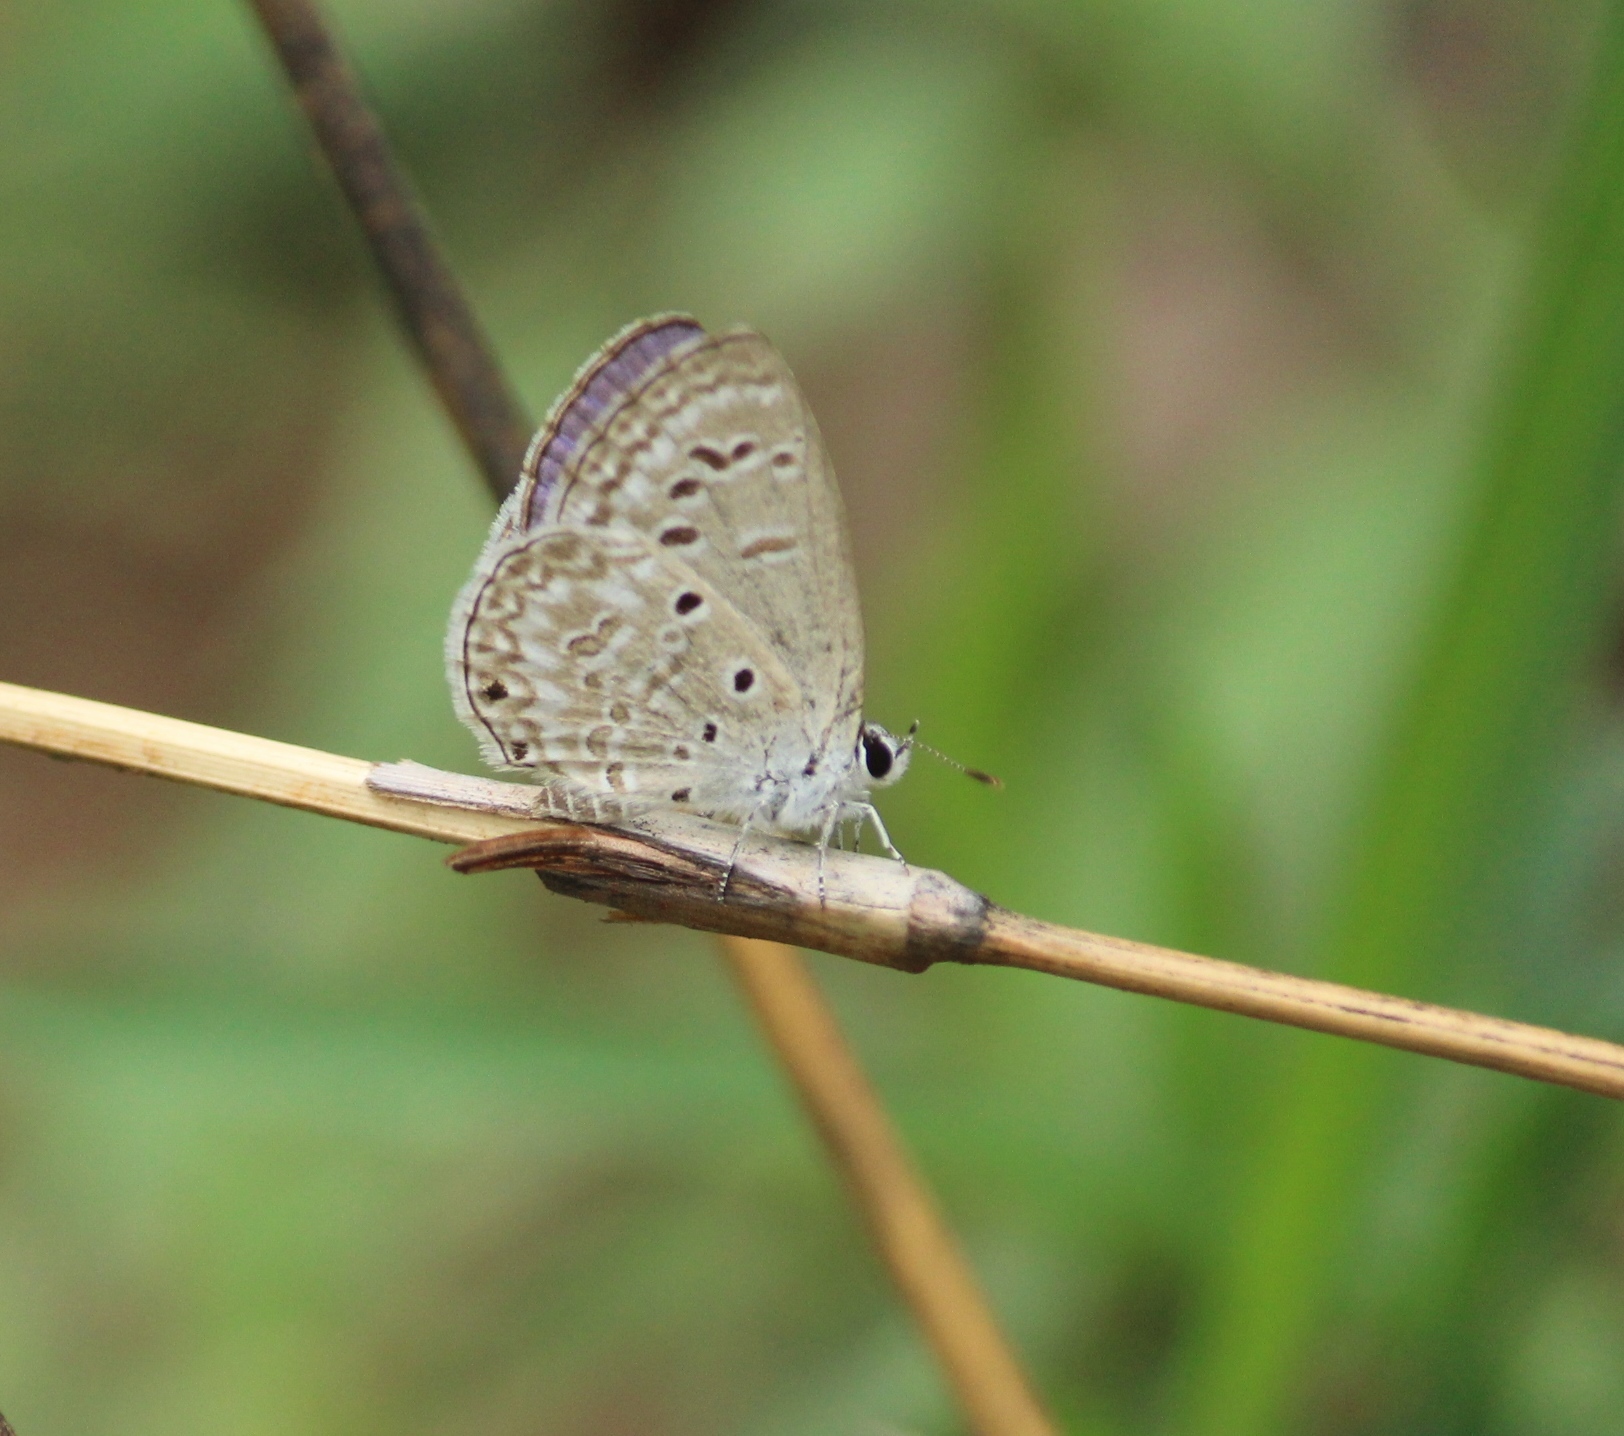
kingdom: Animalia
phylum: Arthropoda
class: Insecta
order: Lepidoptera
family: Lycaenidae
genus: Chilades
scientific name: Chilades laius
